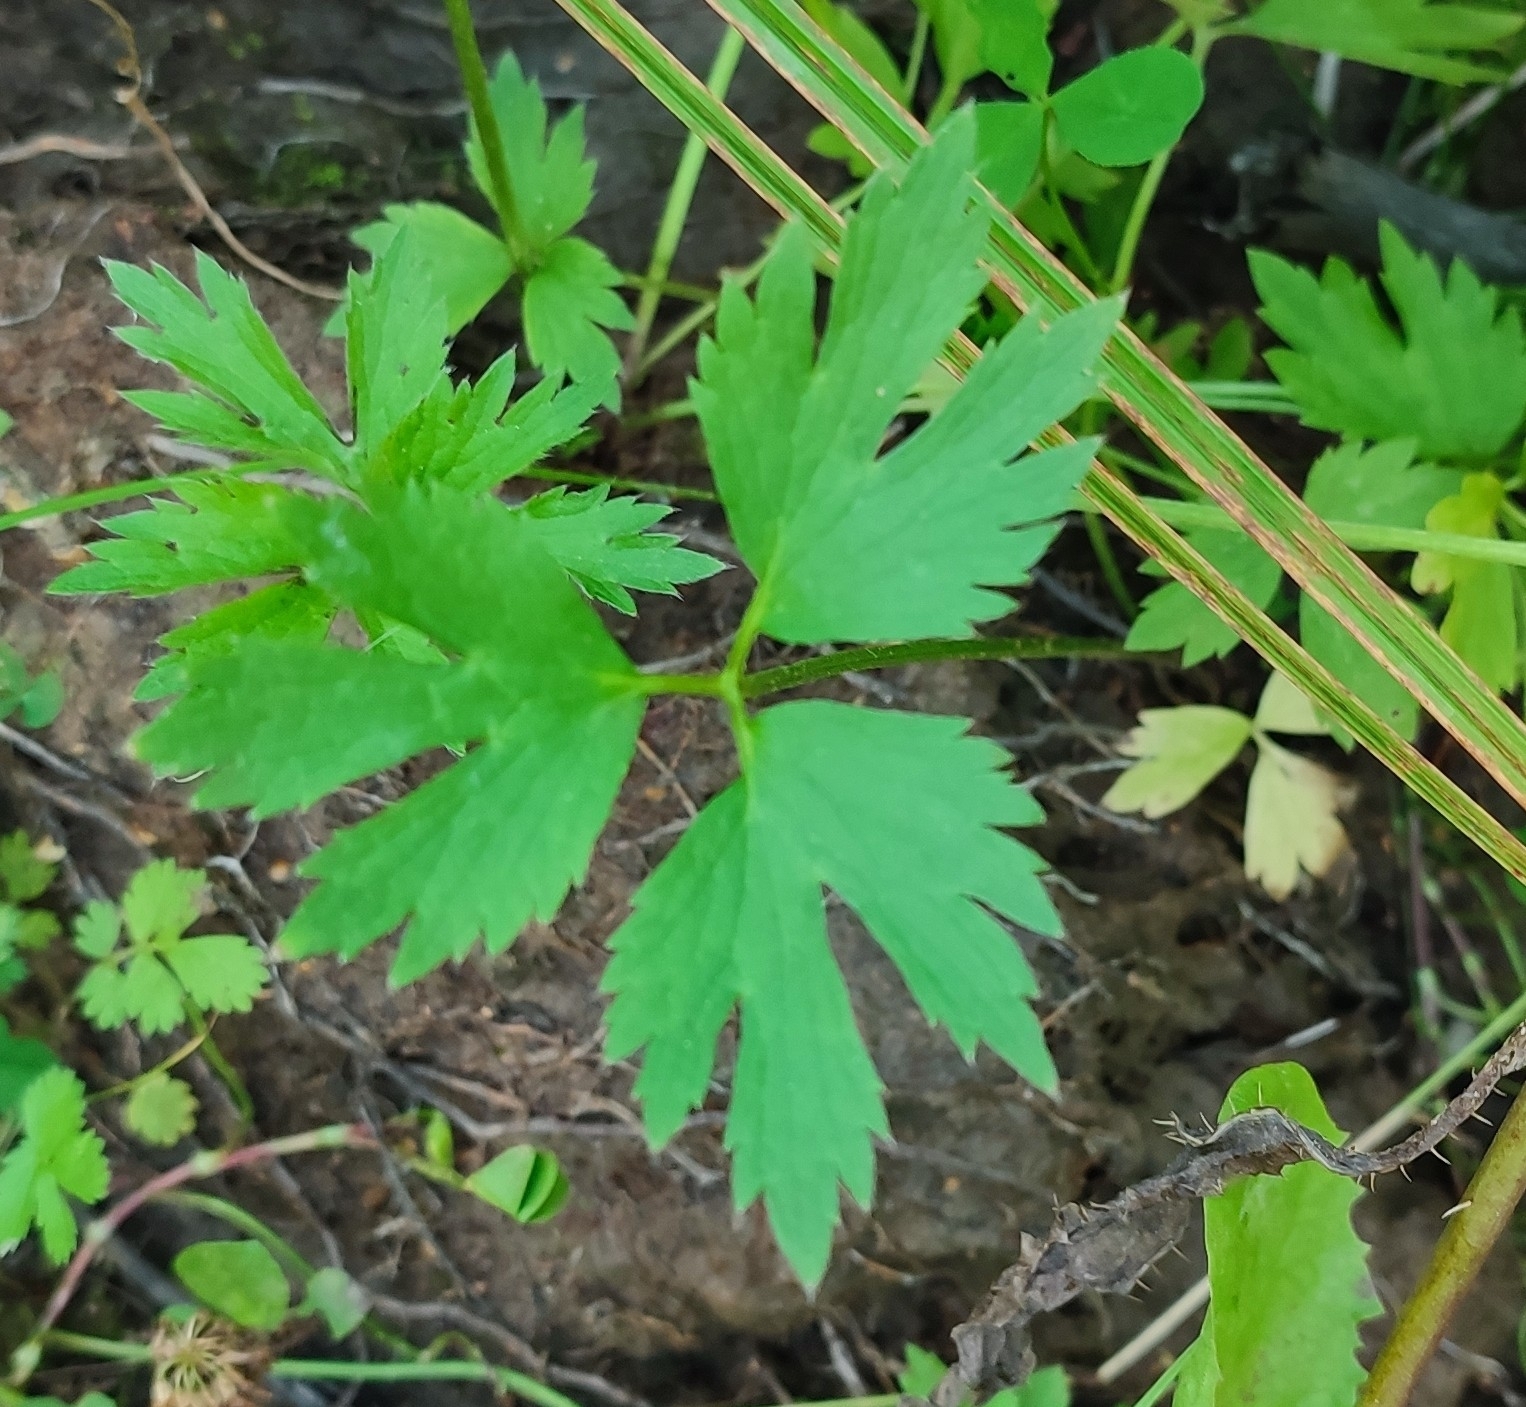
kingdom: Plantae
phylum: Tracheophyta
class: Magnoliopsida
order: Ranunculales
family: Ranunculaceae
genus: Ranunculus
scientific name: Ranunculus repens
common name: Creeping buttercup
